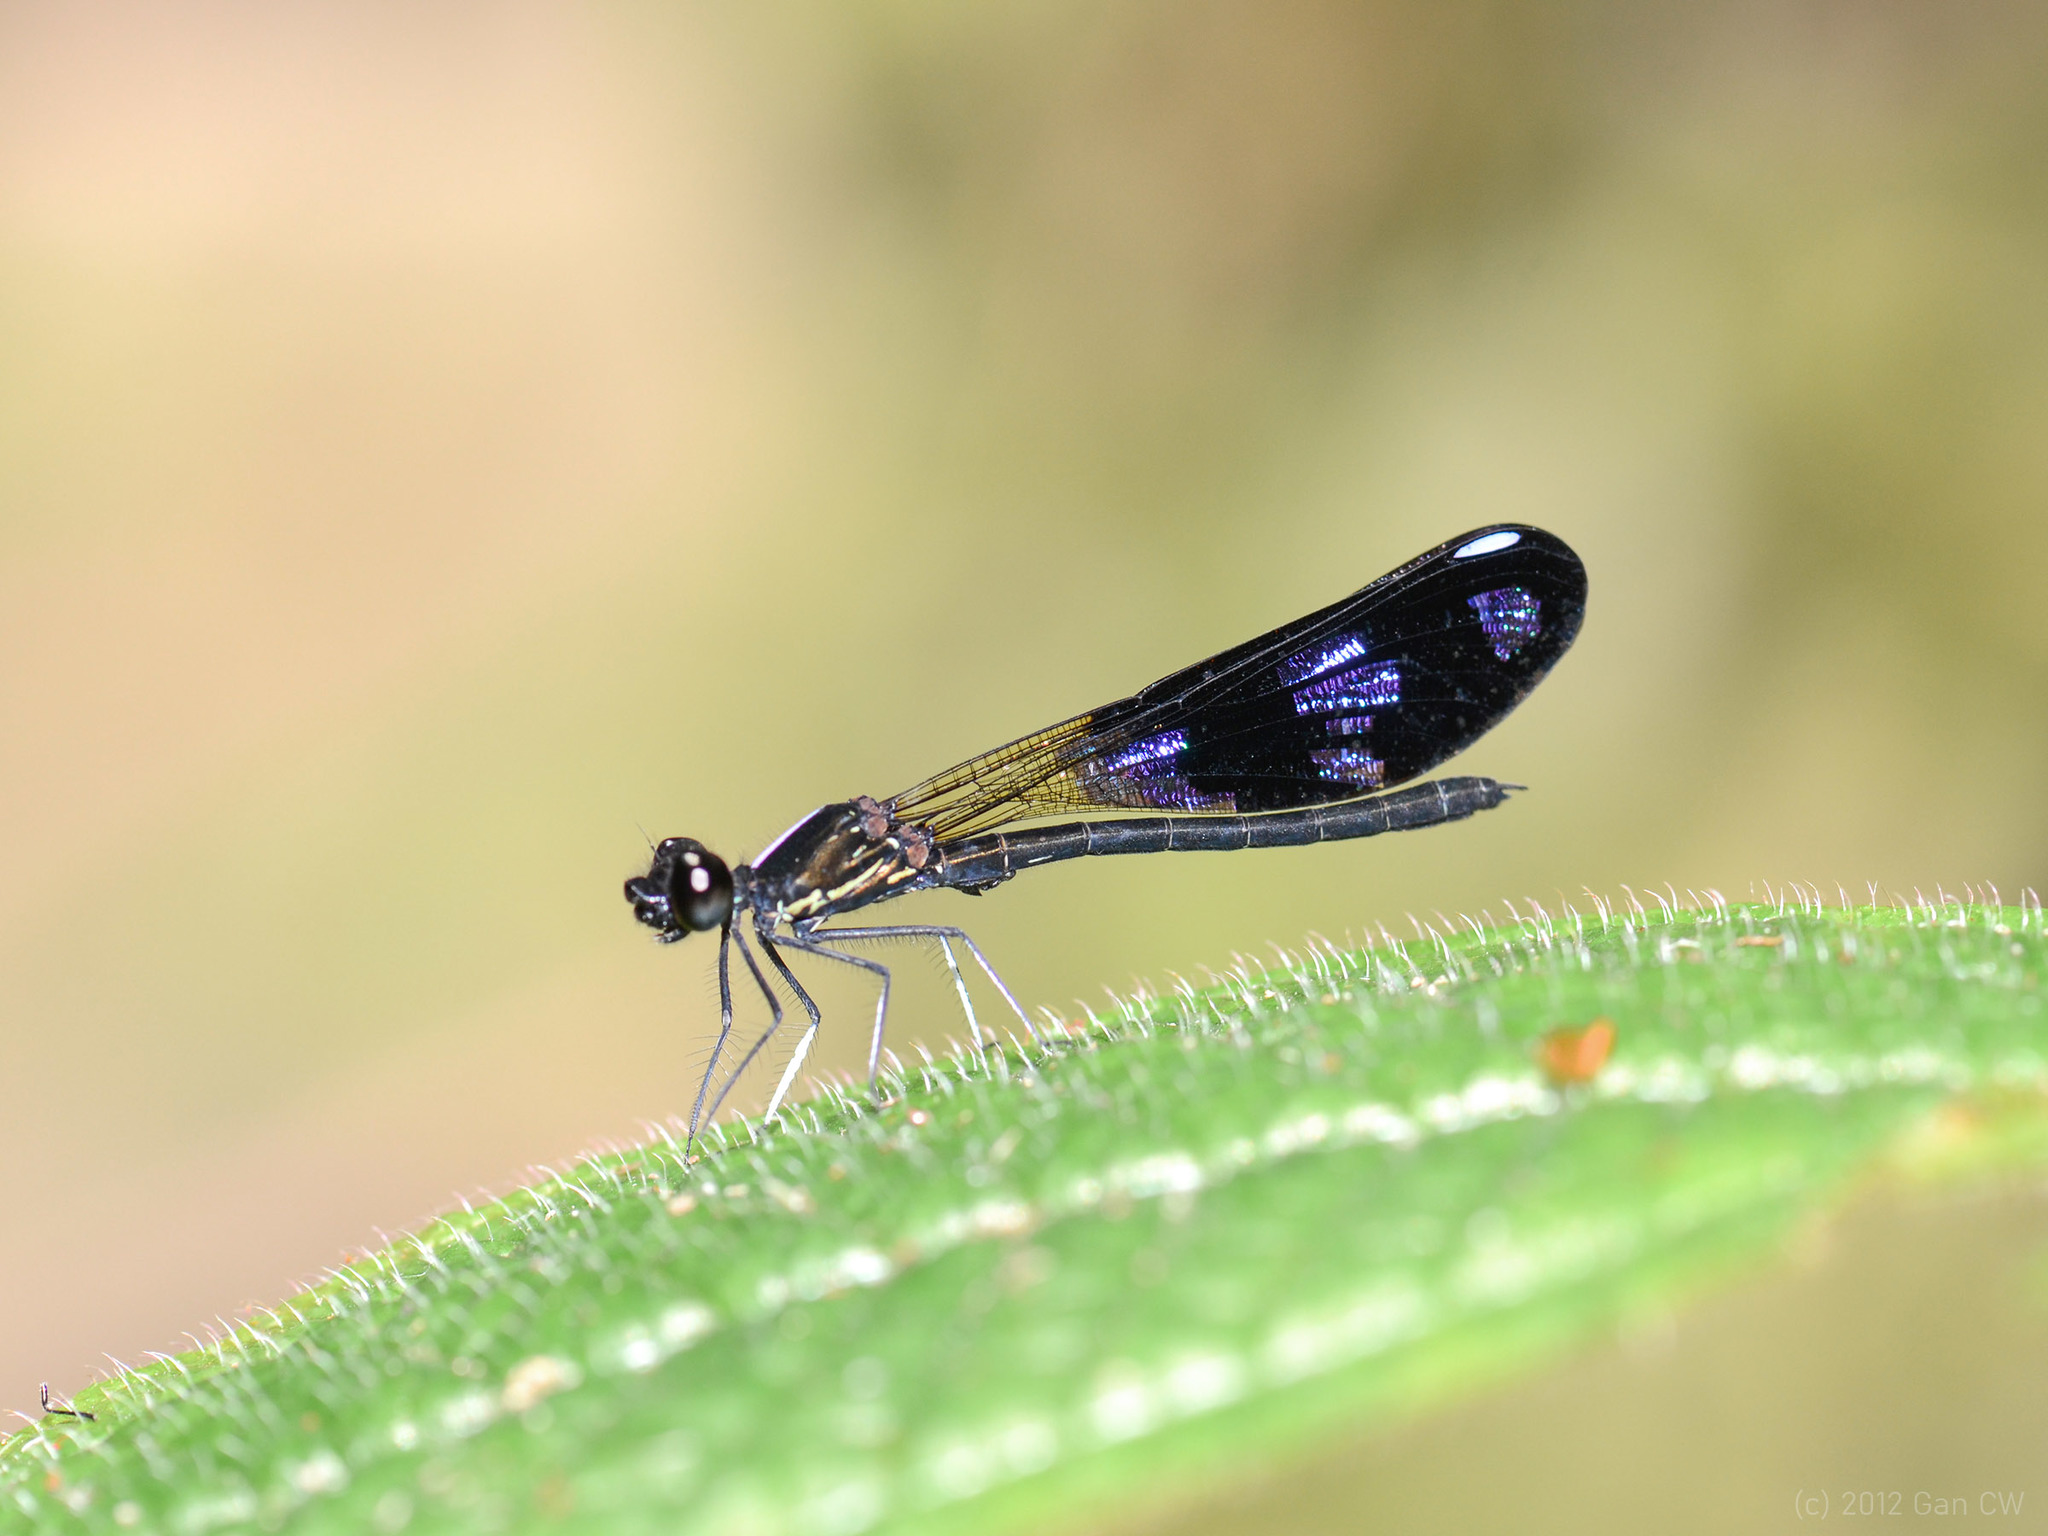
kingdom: Animalia
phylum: Arthropoda
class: Insecta
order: Odonata
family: Chlorocyphidae
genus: Aristocypha
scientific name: Aristocypha fenestrella
